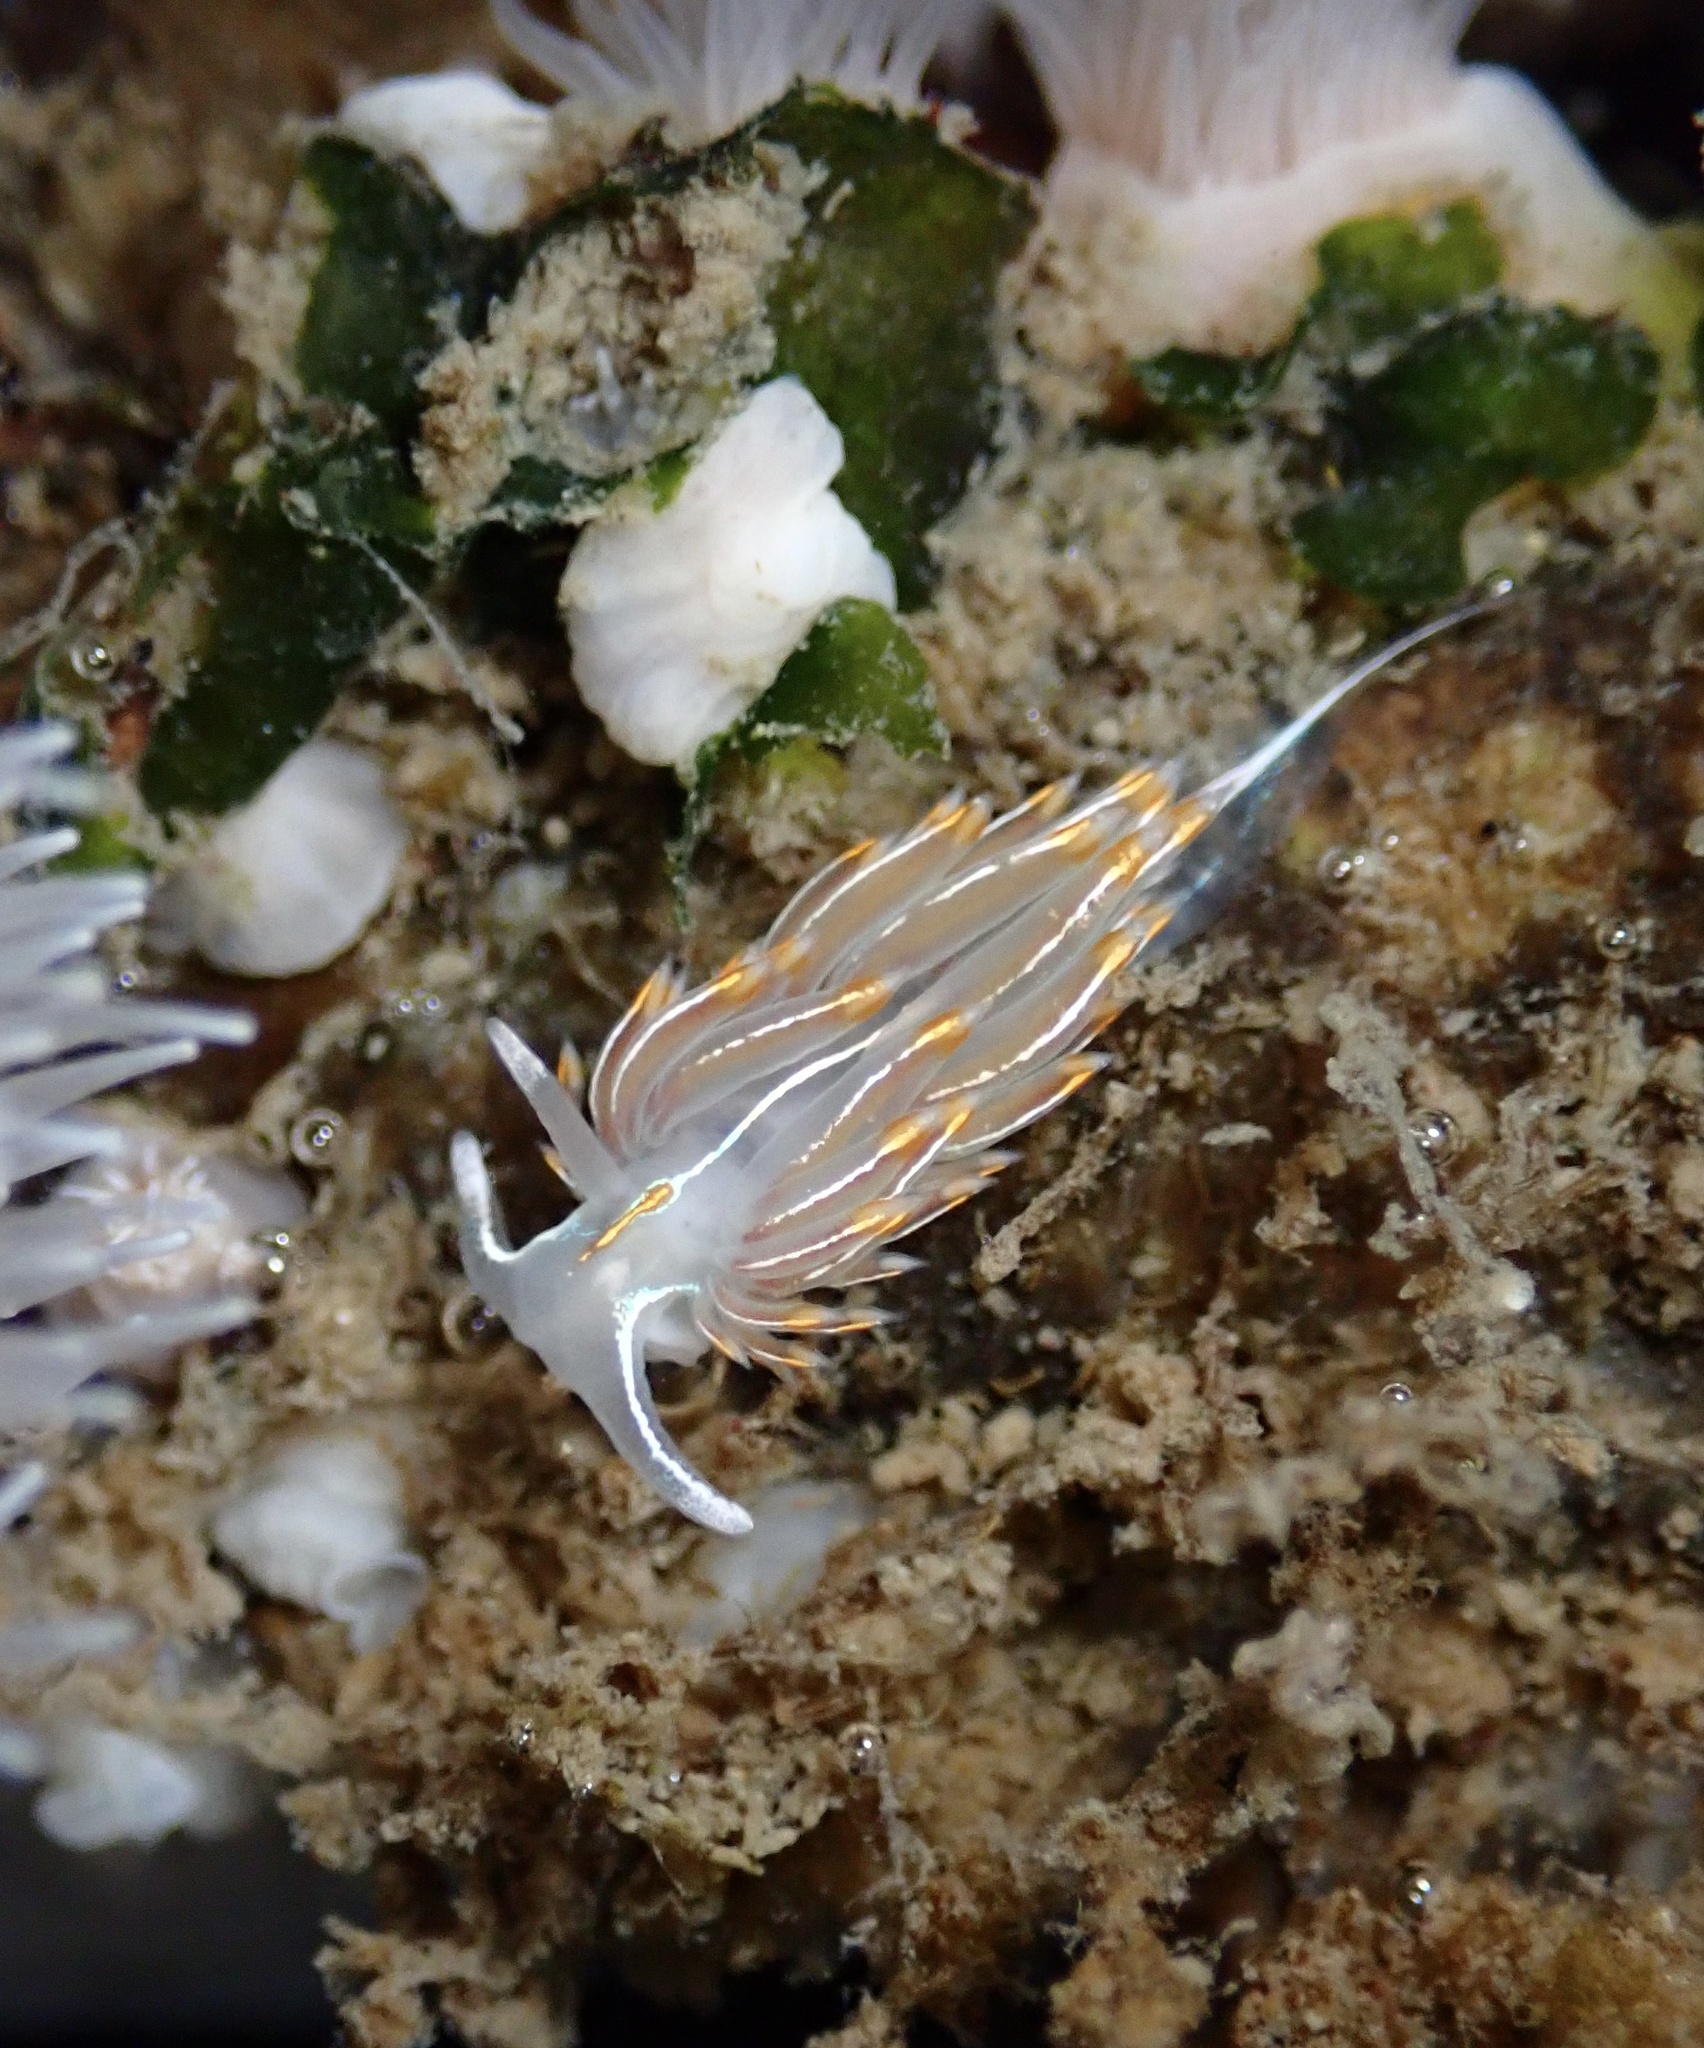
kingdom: Animalia
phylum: Mollusca
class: Gastropoda
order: Nudibranchia
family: Myrrhinidae
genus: Hermissenda
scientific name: Hermissenda crassicornis
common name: Hermissenda
